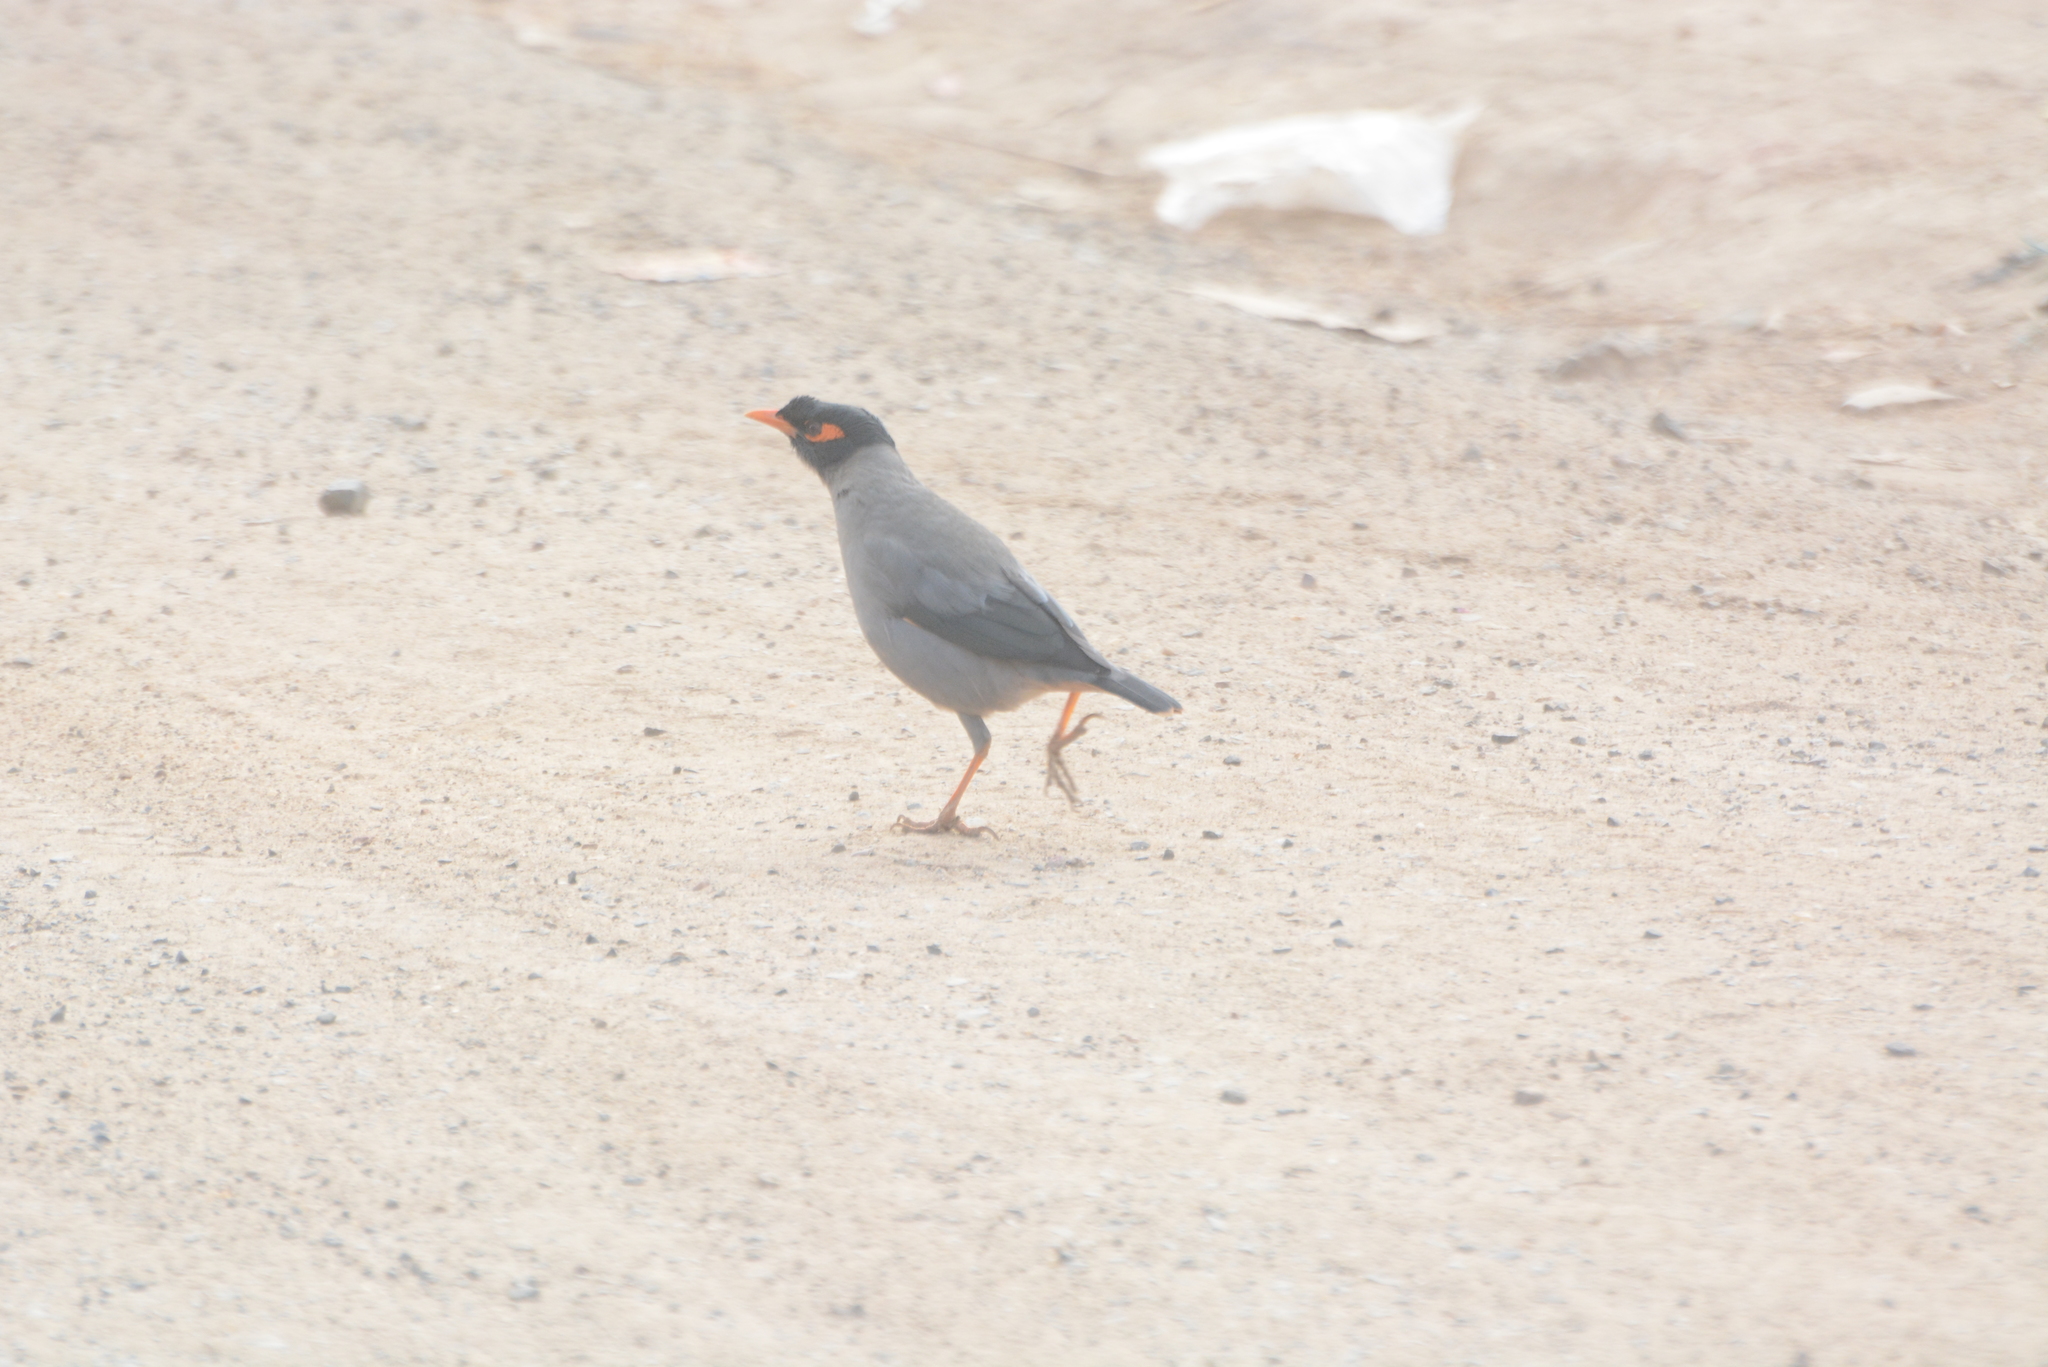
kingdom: Animalia
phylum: Chordata
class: Aves
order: Passeriformes
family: Sturnidae
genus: Acridotheres
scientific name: Acridotheres ginginianus
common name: Bank myna
